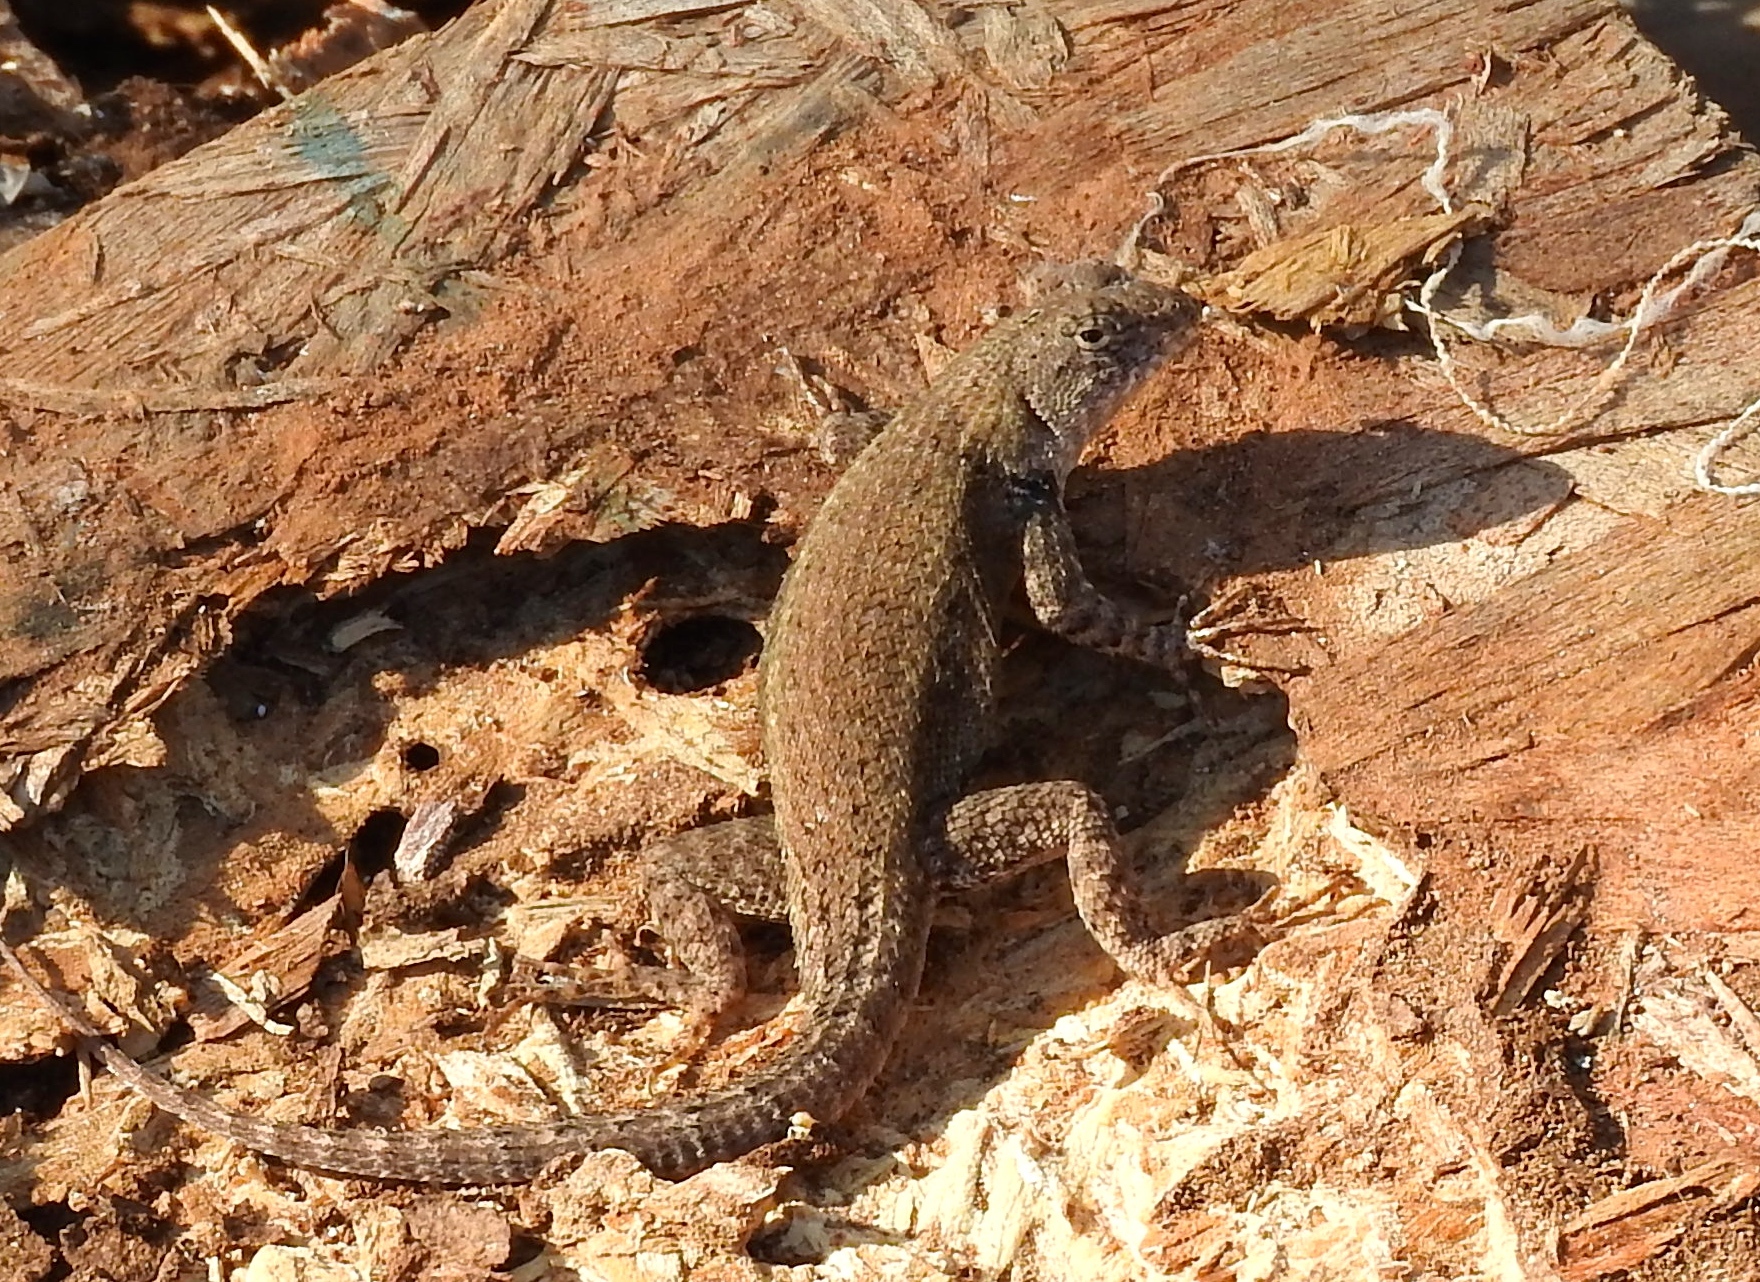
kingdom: Animalia
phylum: Chordata
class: Squamata
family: Phrynosomatidae
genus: Sceloporus
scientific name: Sceloporus nelsoni
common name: Nelson's spiny lizard
